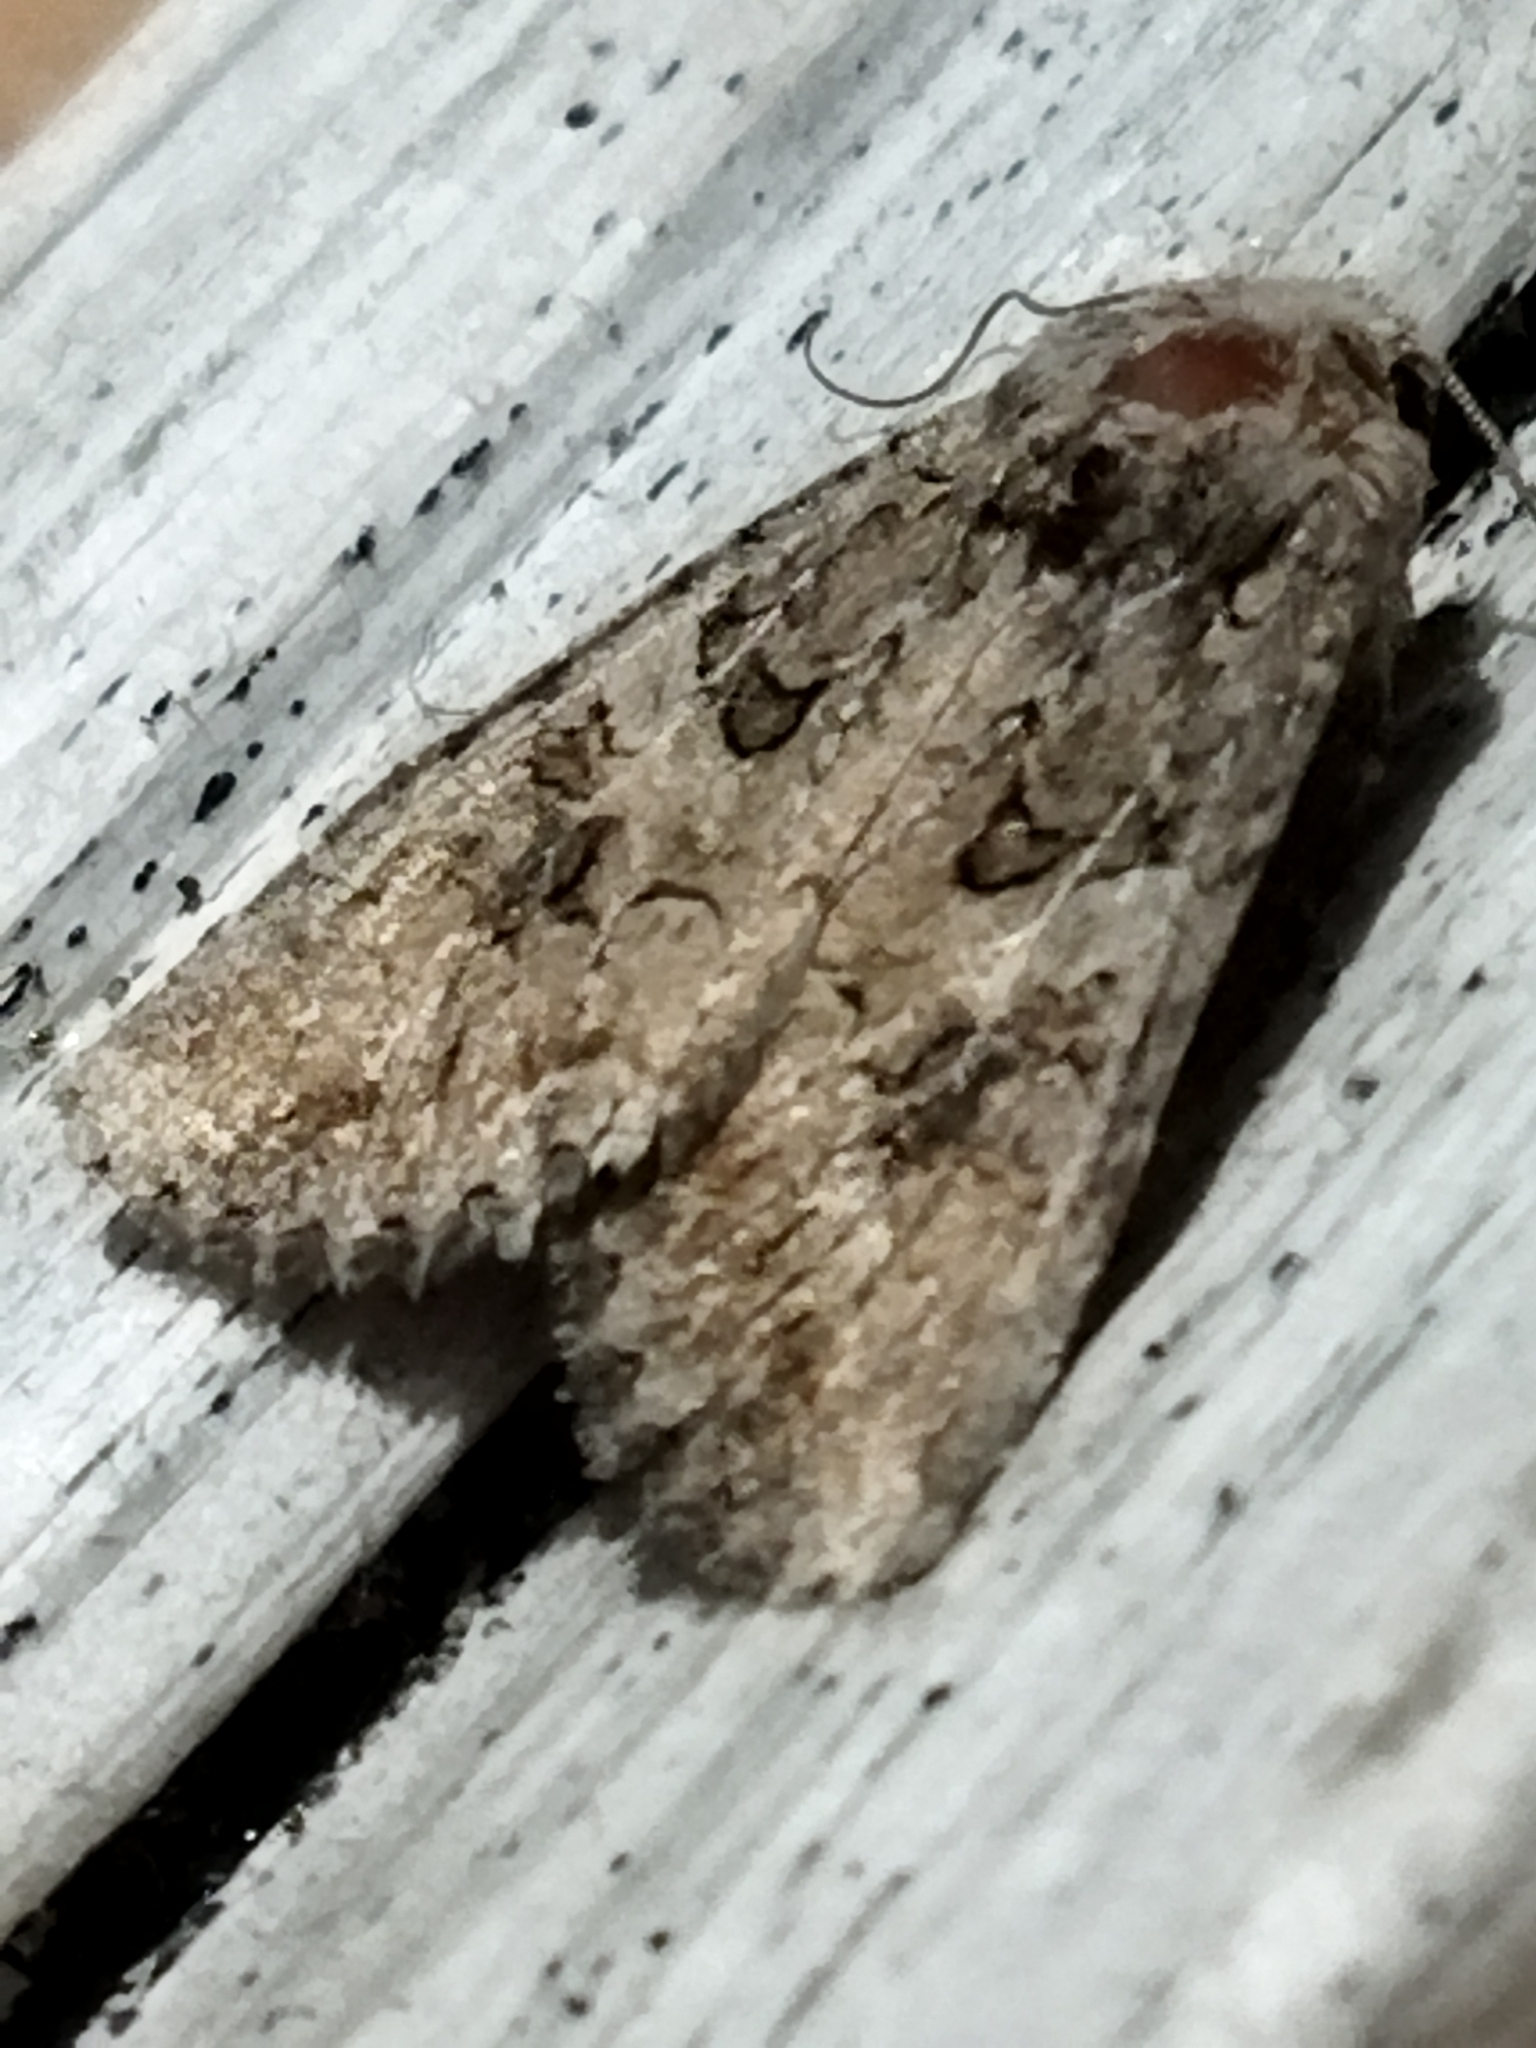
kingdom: Animalia
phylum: Arthropoda
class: Insecta
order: Lepidoptera
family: Noctuidae
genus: Anarta
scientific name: Anarta trifolii
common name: Clover cutworm moth
